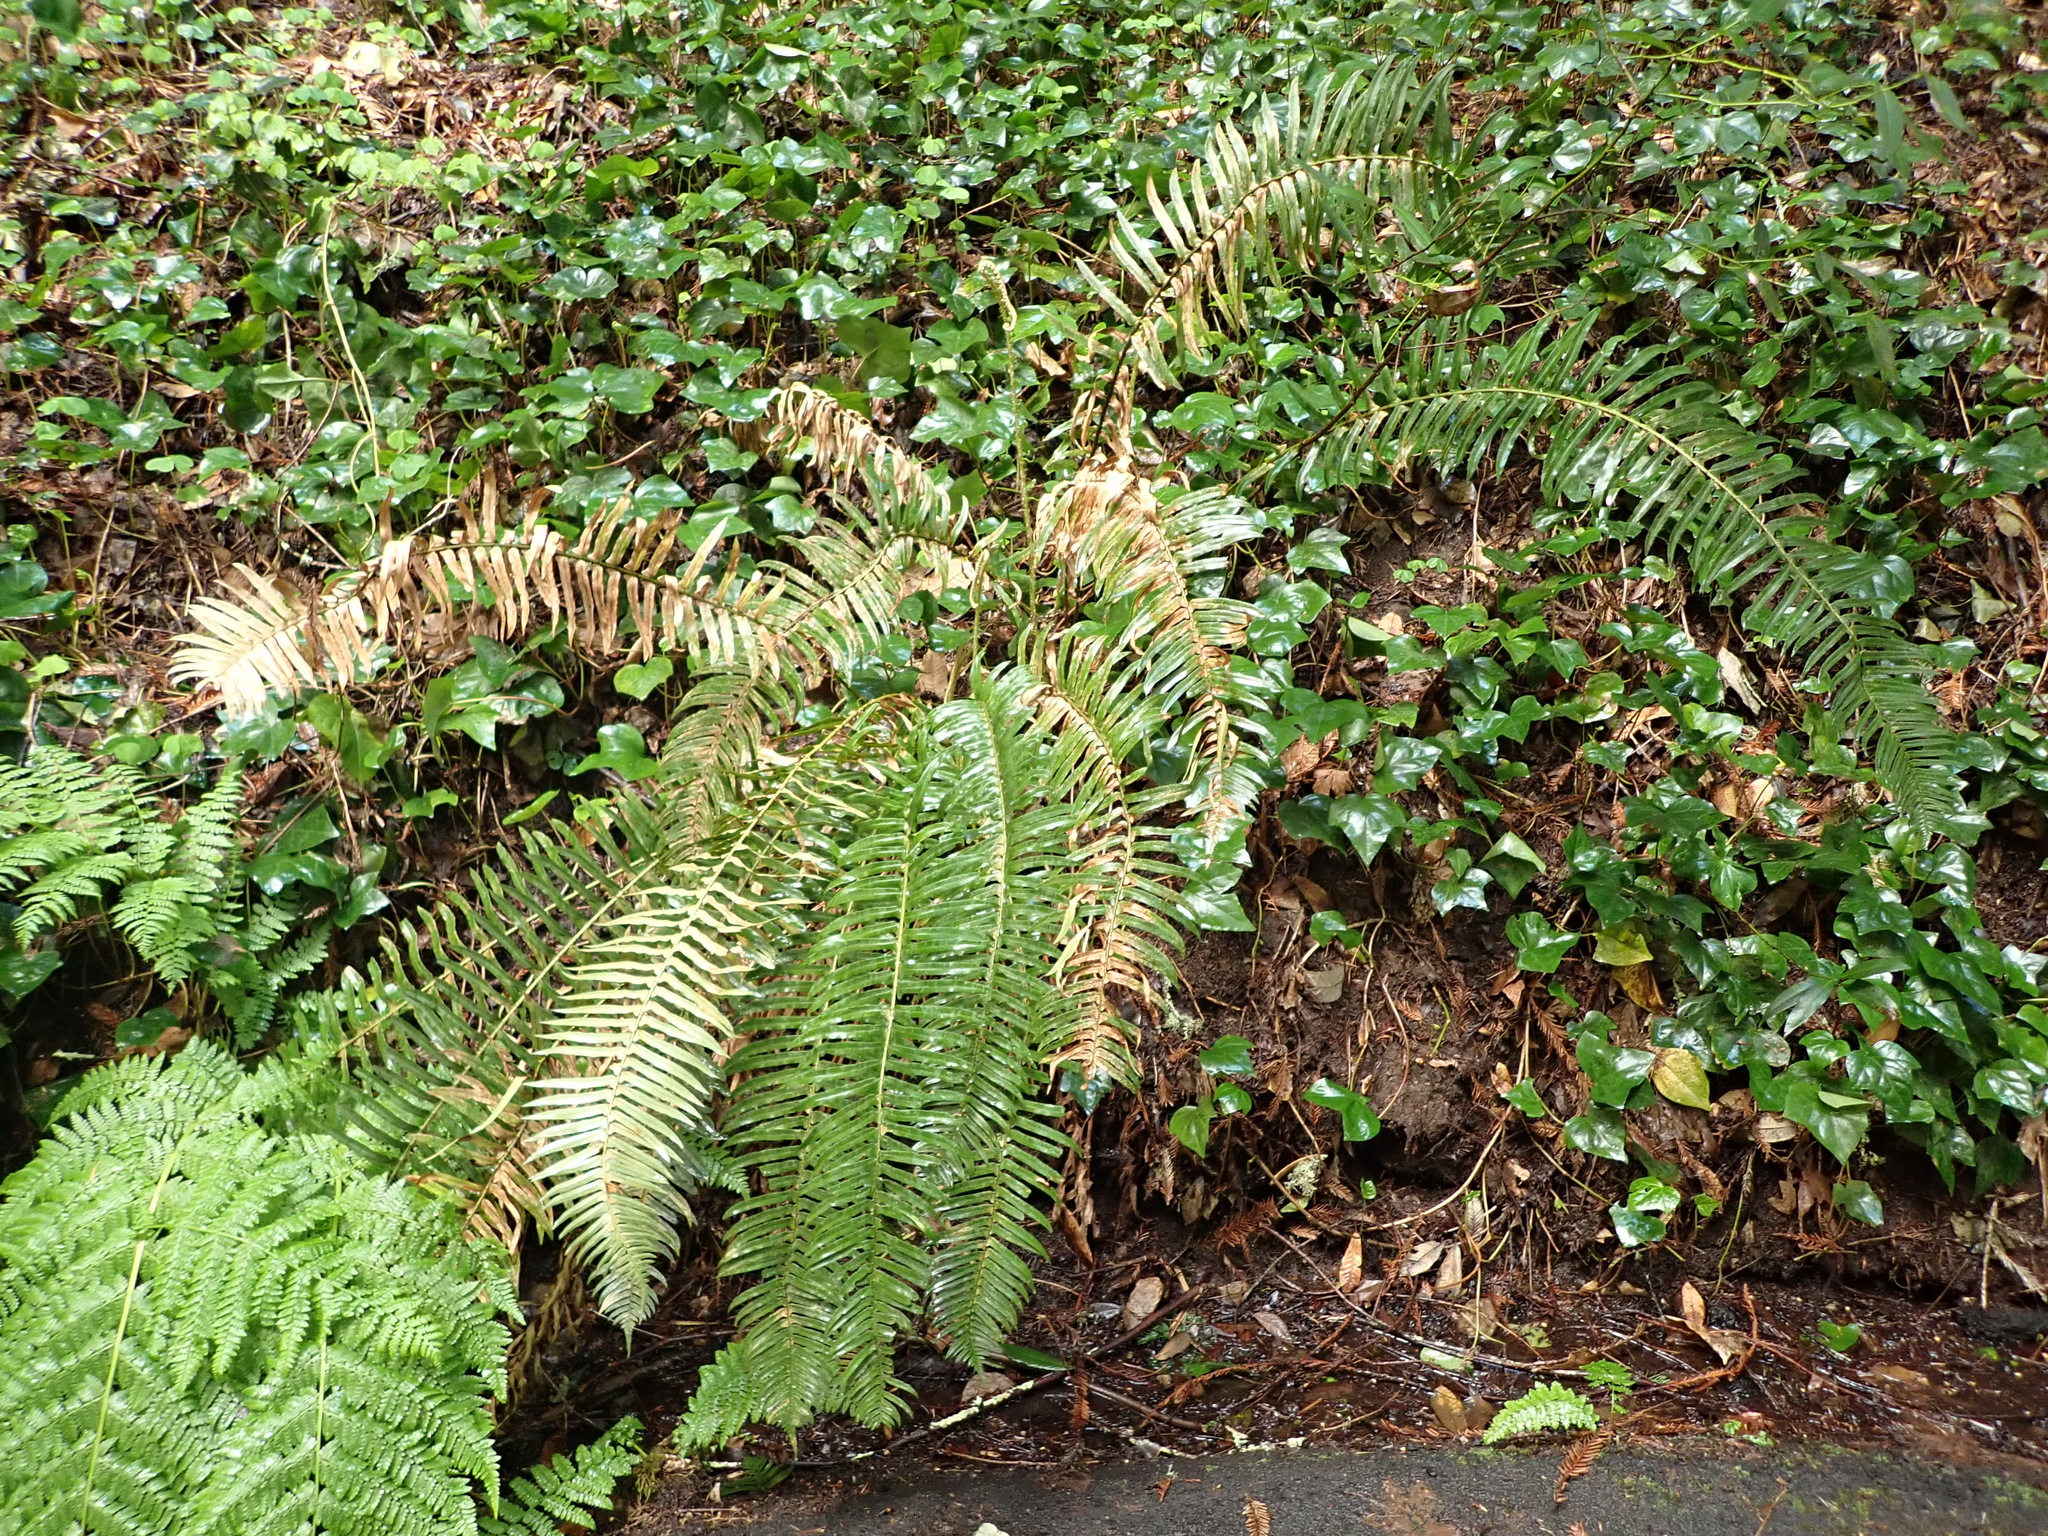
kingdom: Plantae
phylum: Tracheophyta
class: Polypodiopsida
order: Polypodiales
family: Dryopteridaceae
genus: Polystichum
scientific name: Polystichum munitum
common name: Western sword-fern
